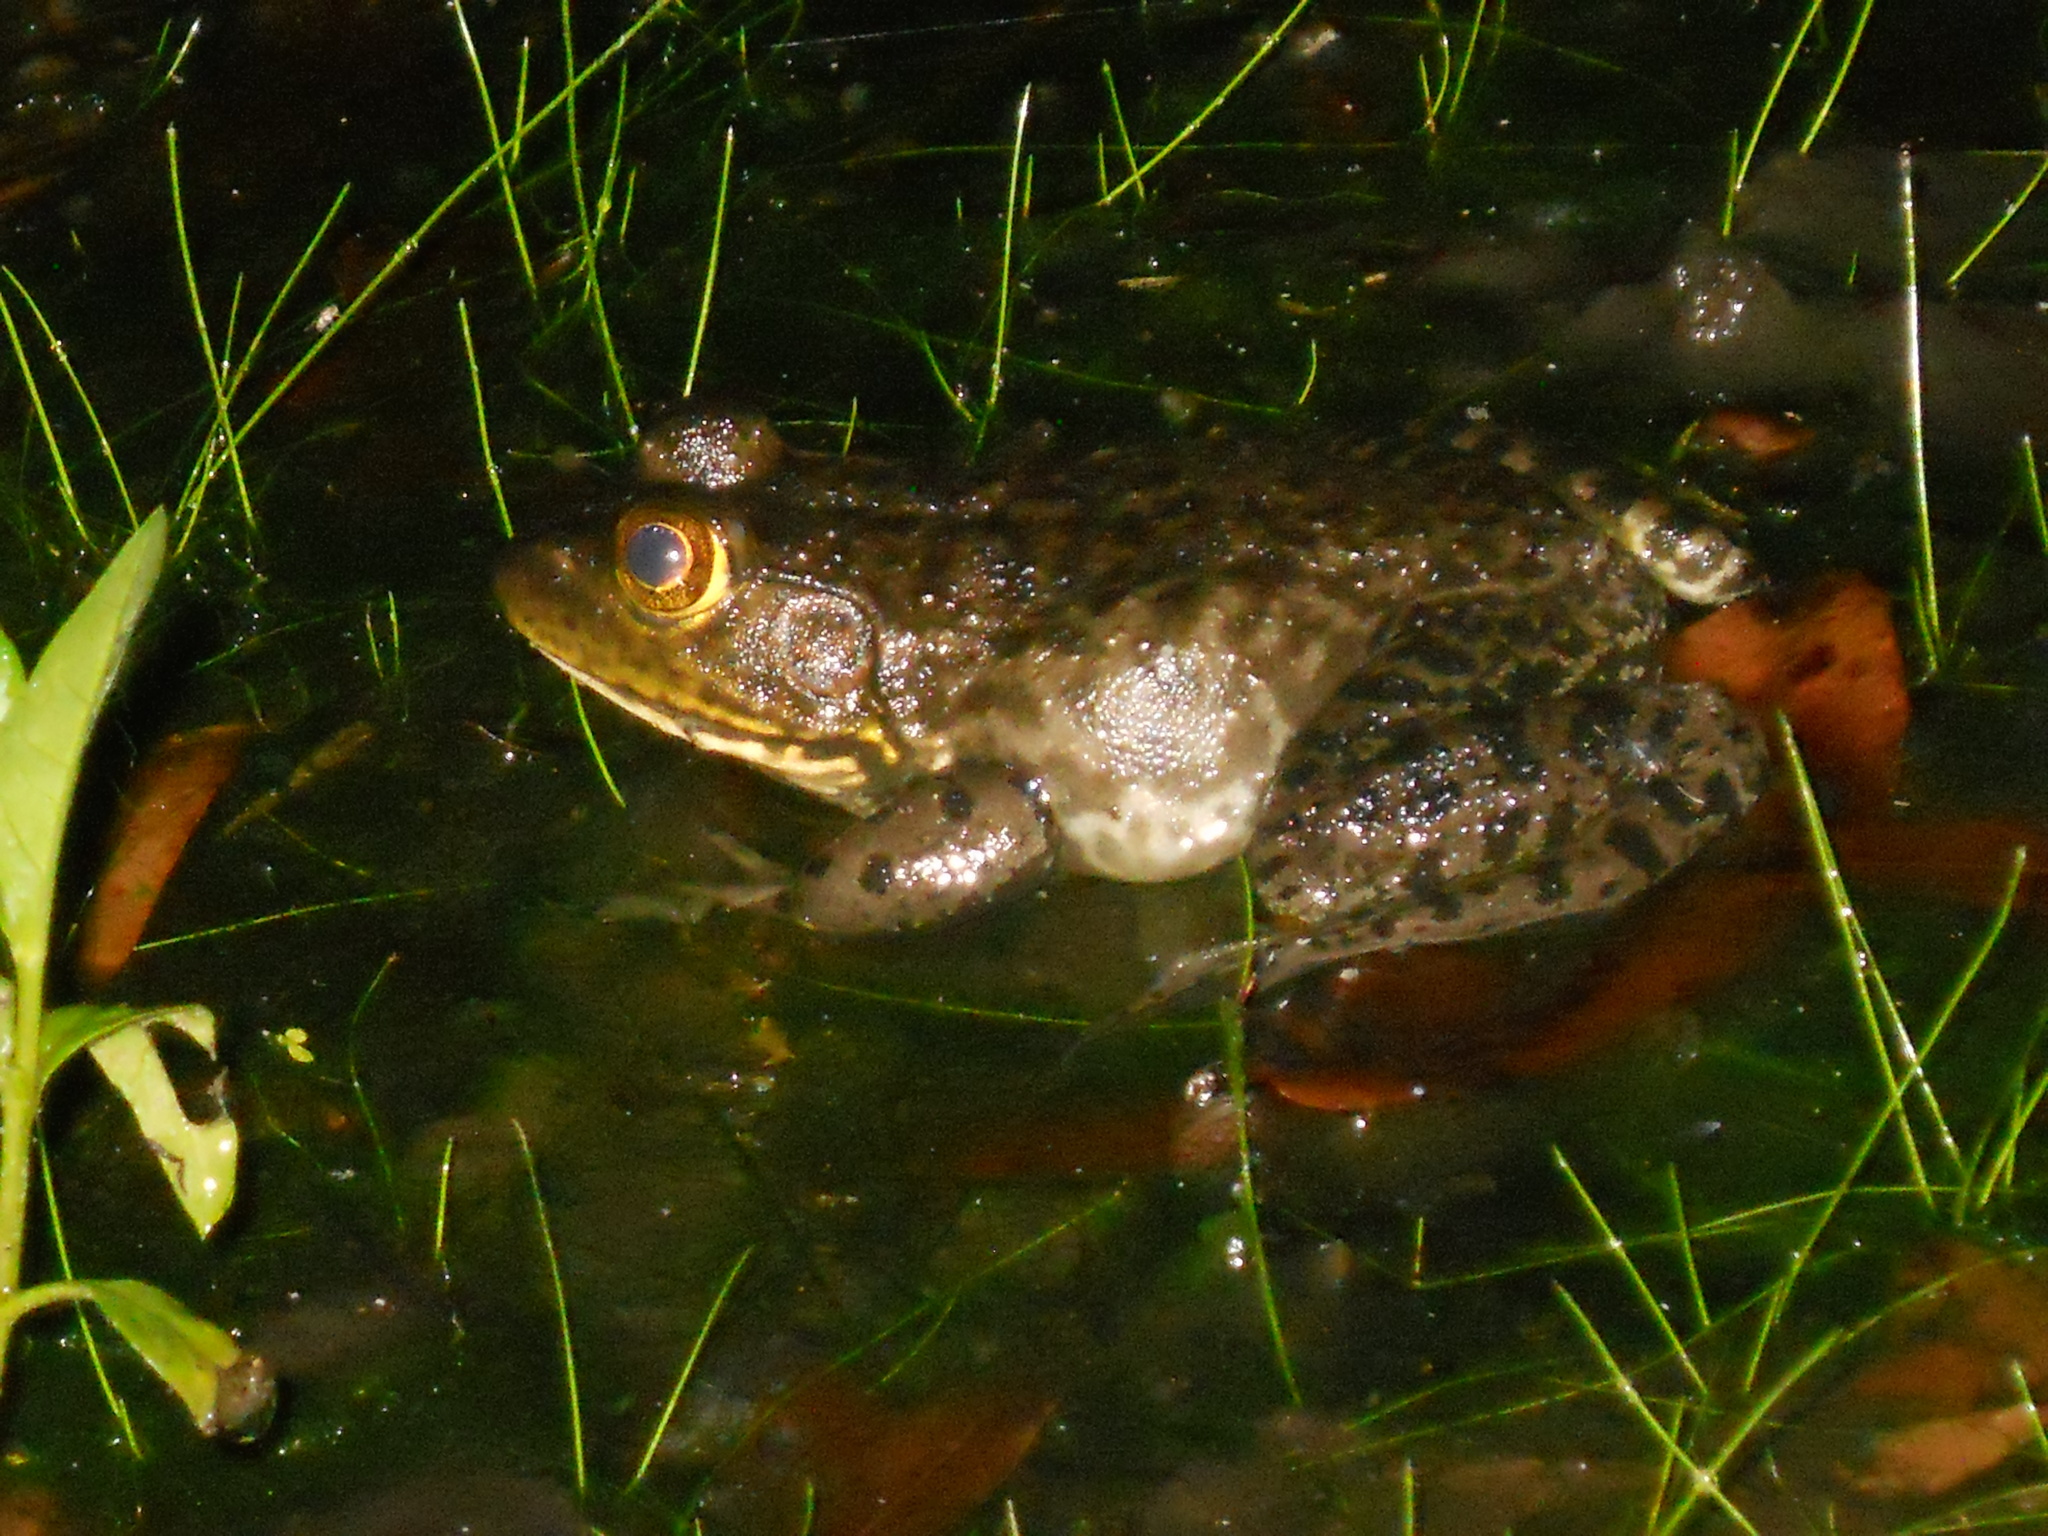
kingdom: Animalia
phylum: Chordata
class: Amphibia
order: Anura
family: Ranidae
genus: Lithobates
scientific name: Lithobates catesbeianus
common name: American bullfrog
